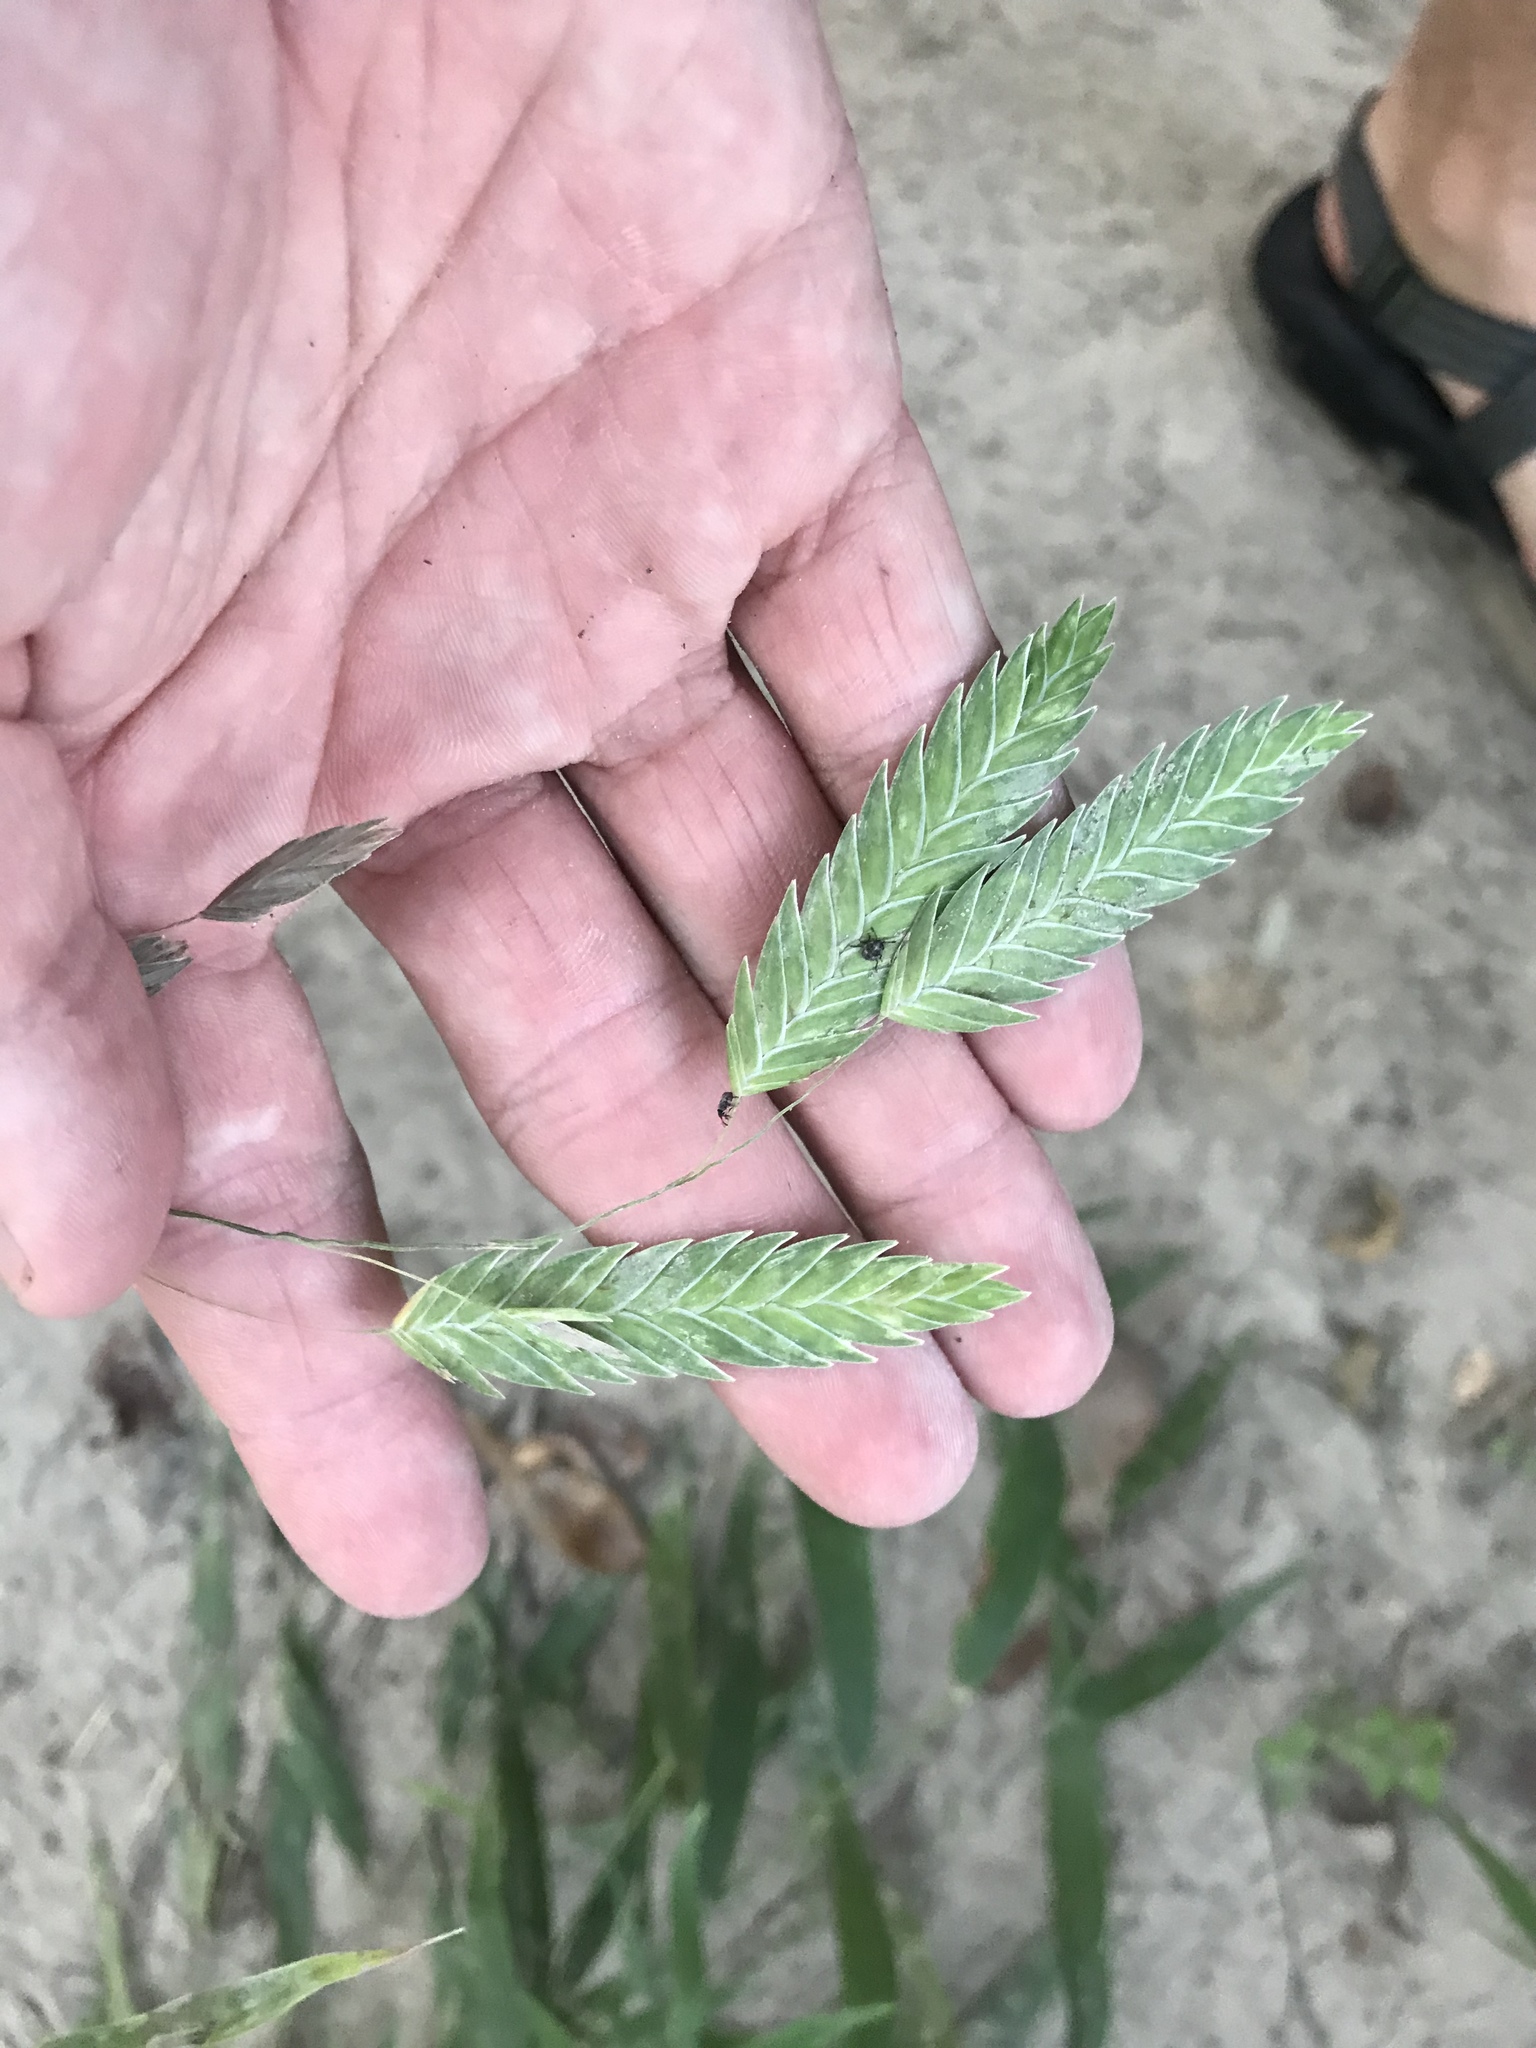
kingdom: Plantae
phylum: Tracheophyta
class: Liliopsida
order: Poales
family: Poaceae
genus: Chasmanthium
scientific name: Chasmanthium latifolium
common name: Broad-leaved chasmanthium
